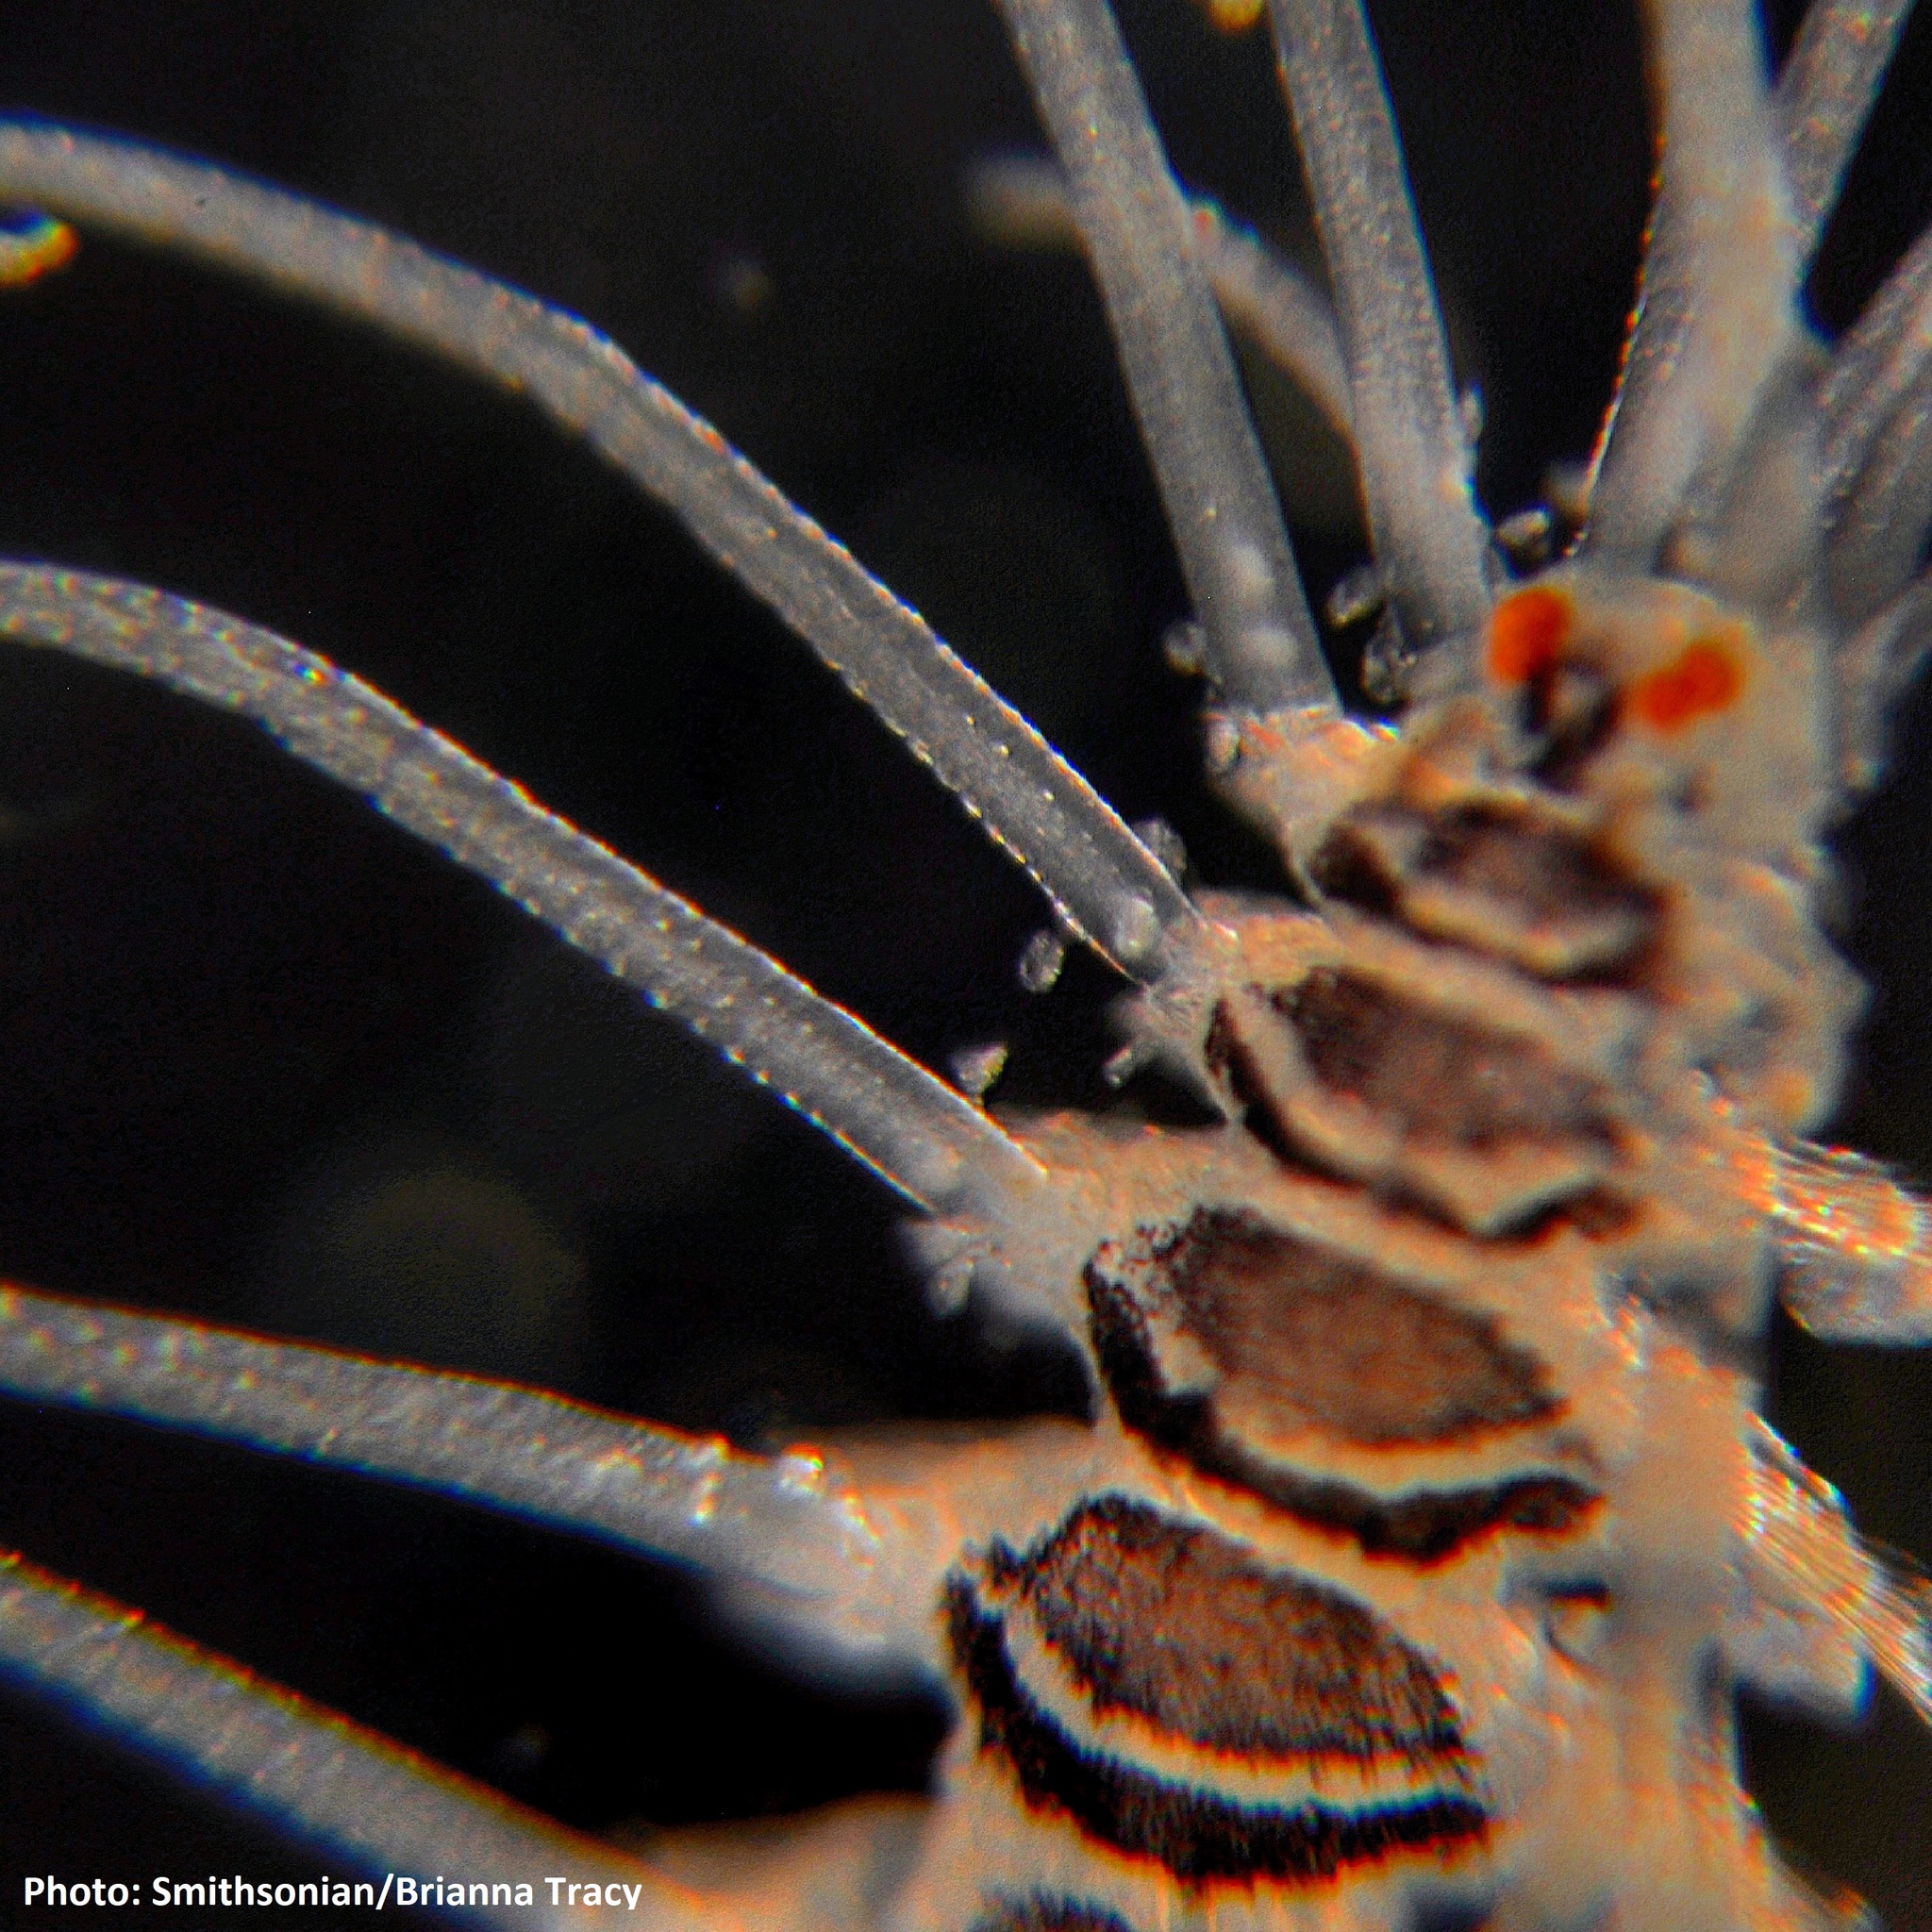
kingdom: Animalia
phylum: Annelida
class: Polychaeta
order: Phyllodocida
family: Syllidae
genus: Amblyosyllis
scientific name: Amblyosyllis nigrolineata
